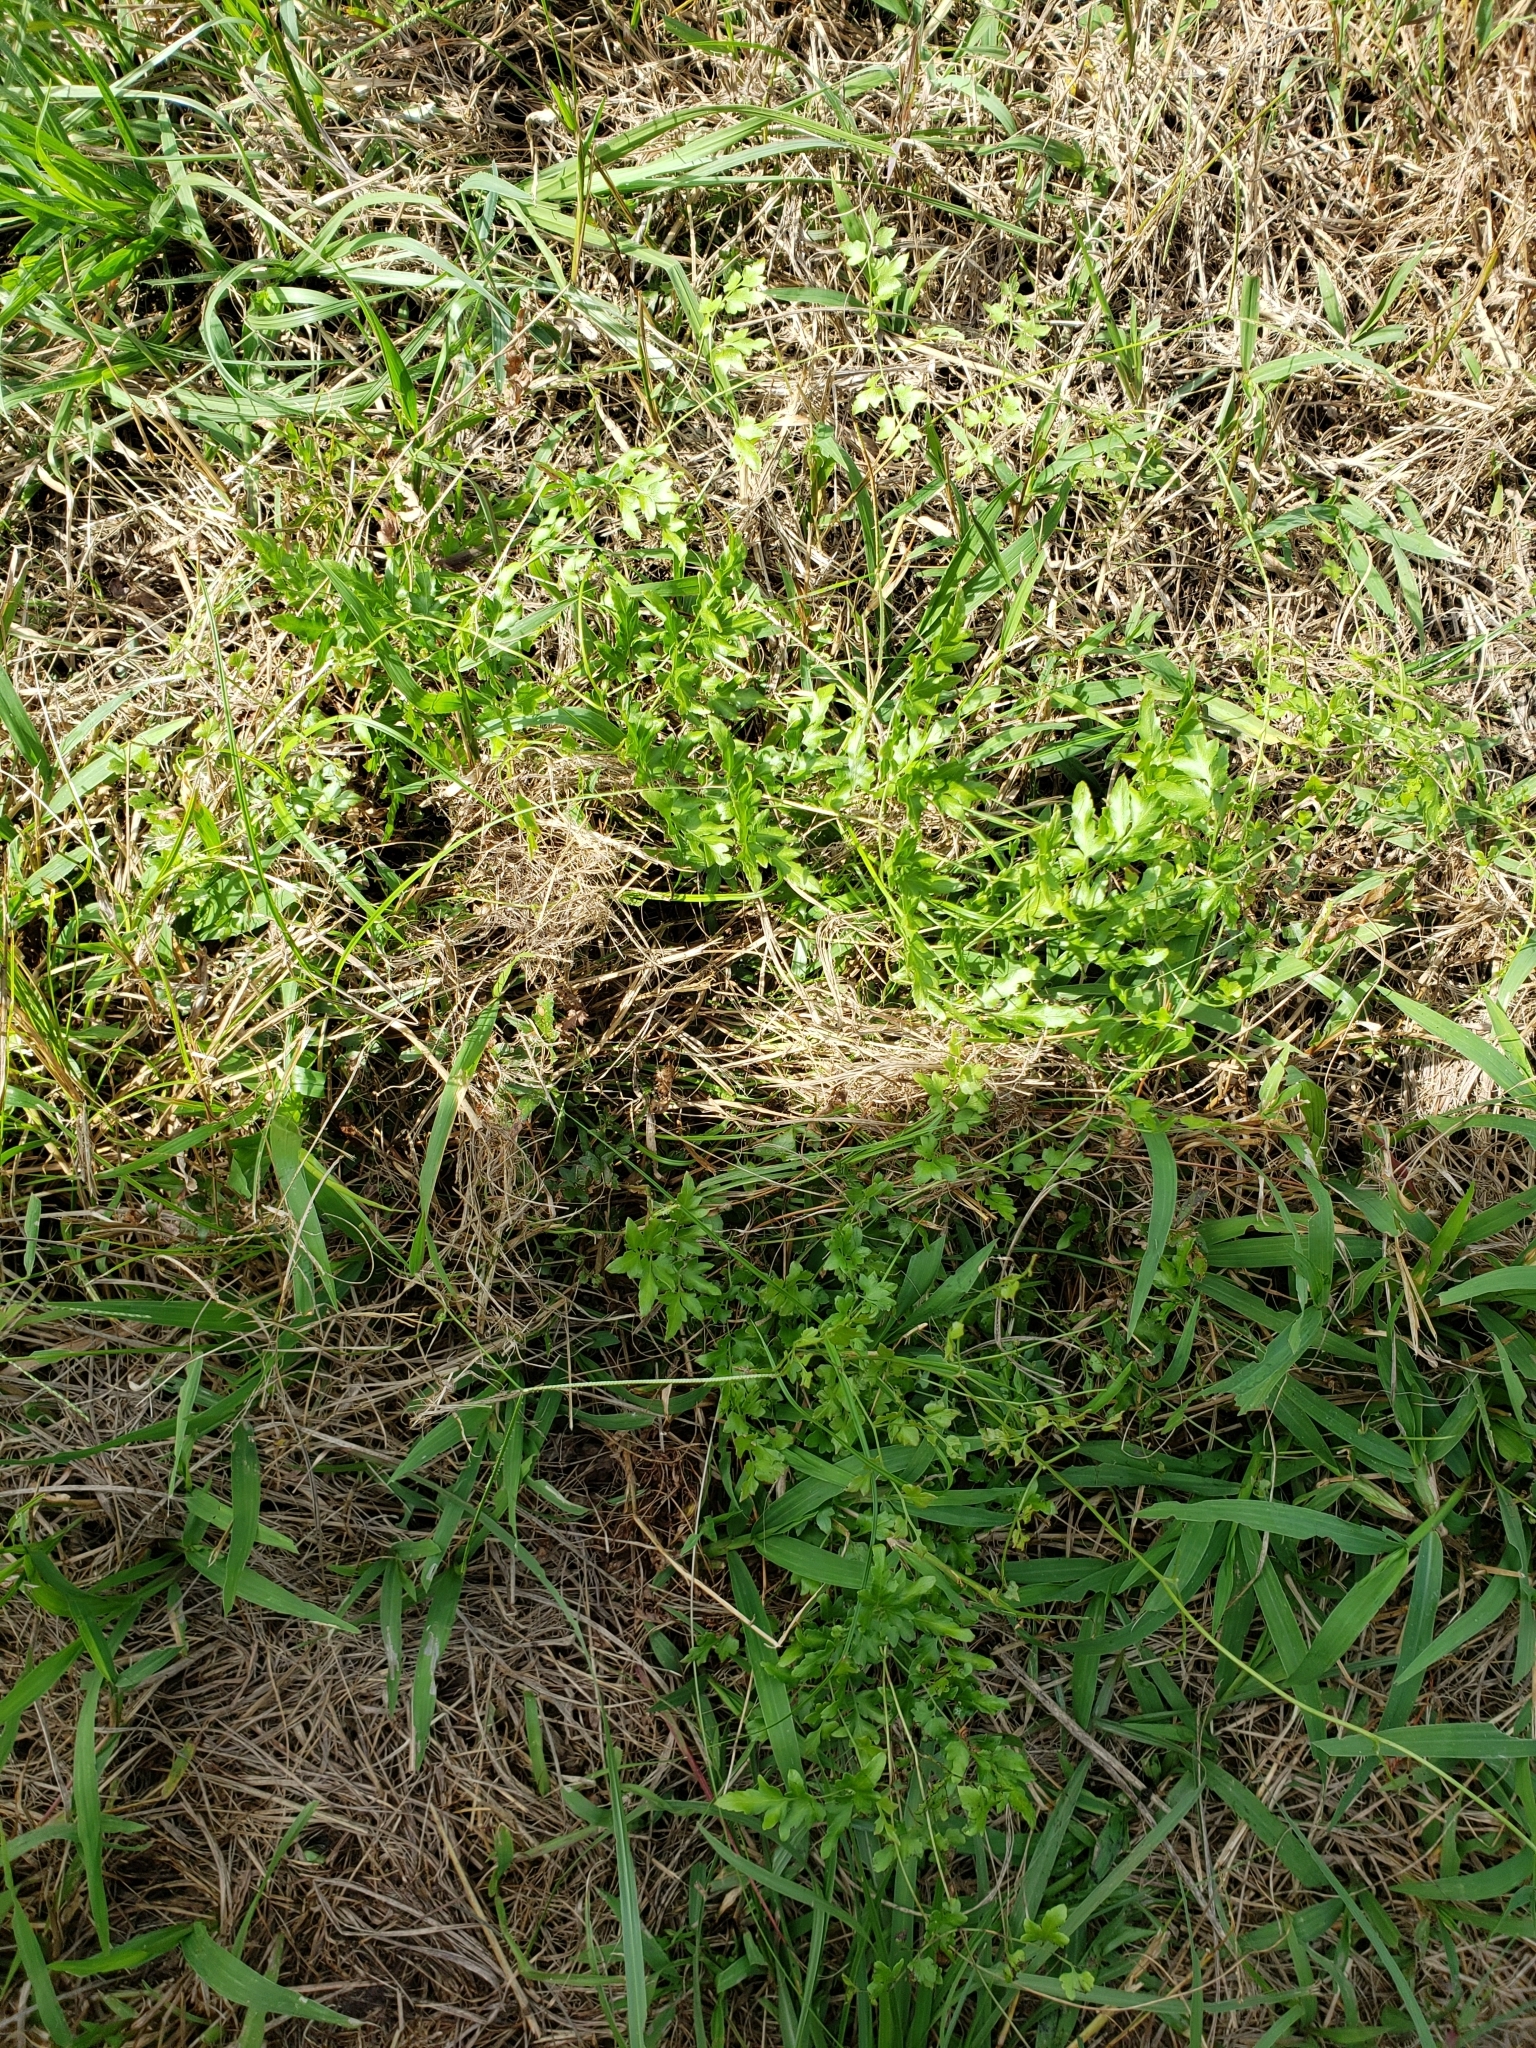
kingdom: Plantae
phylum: Tracheophyta
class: Polypodiopsida
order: Schizaeales
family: Lygodiaceae
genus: Lygodium
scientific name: Lygodium japonicum
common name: Japanese climbing fern
